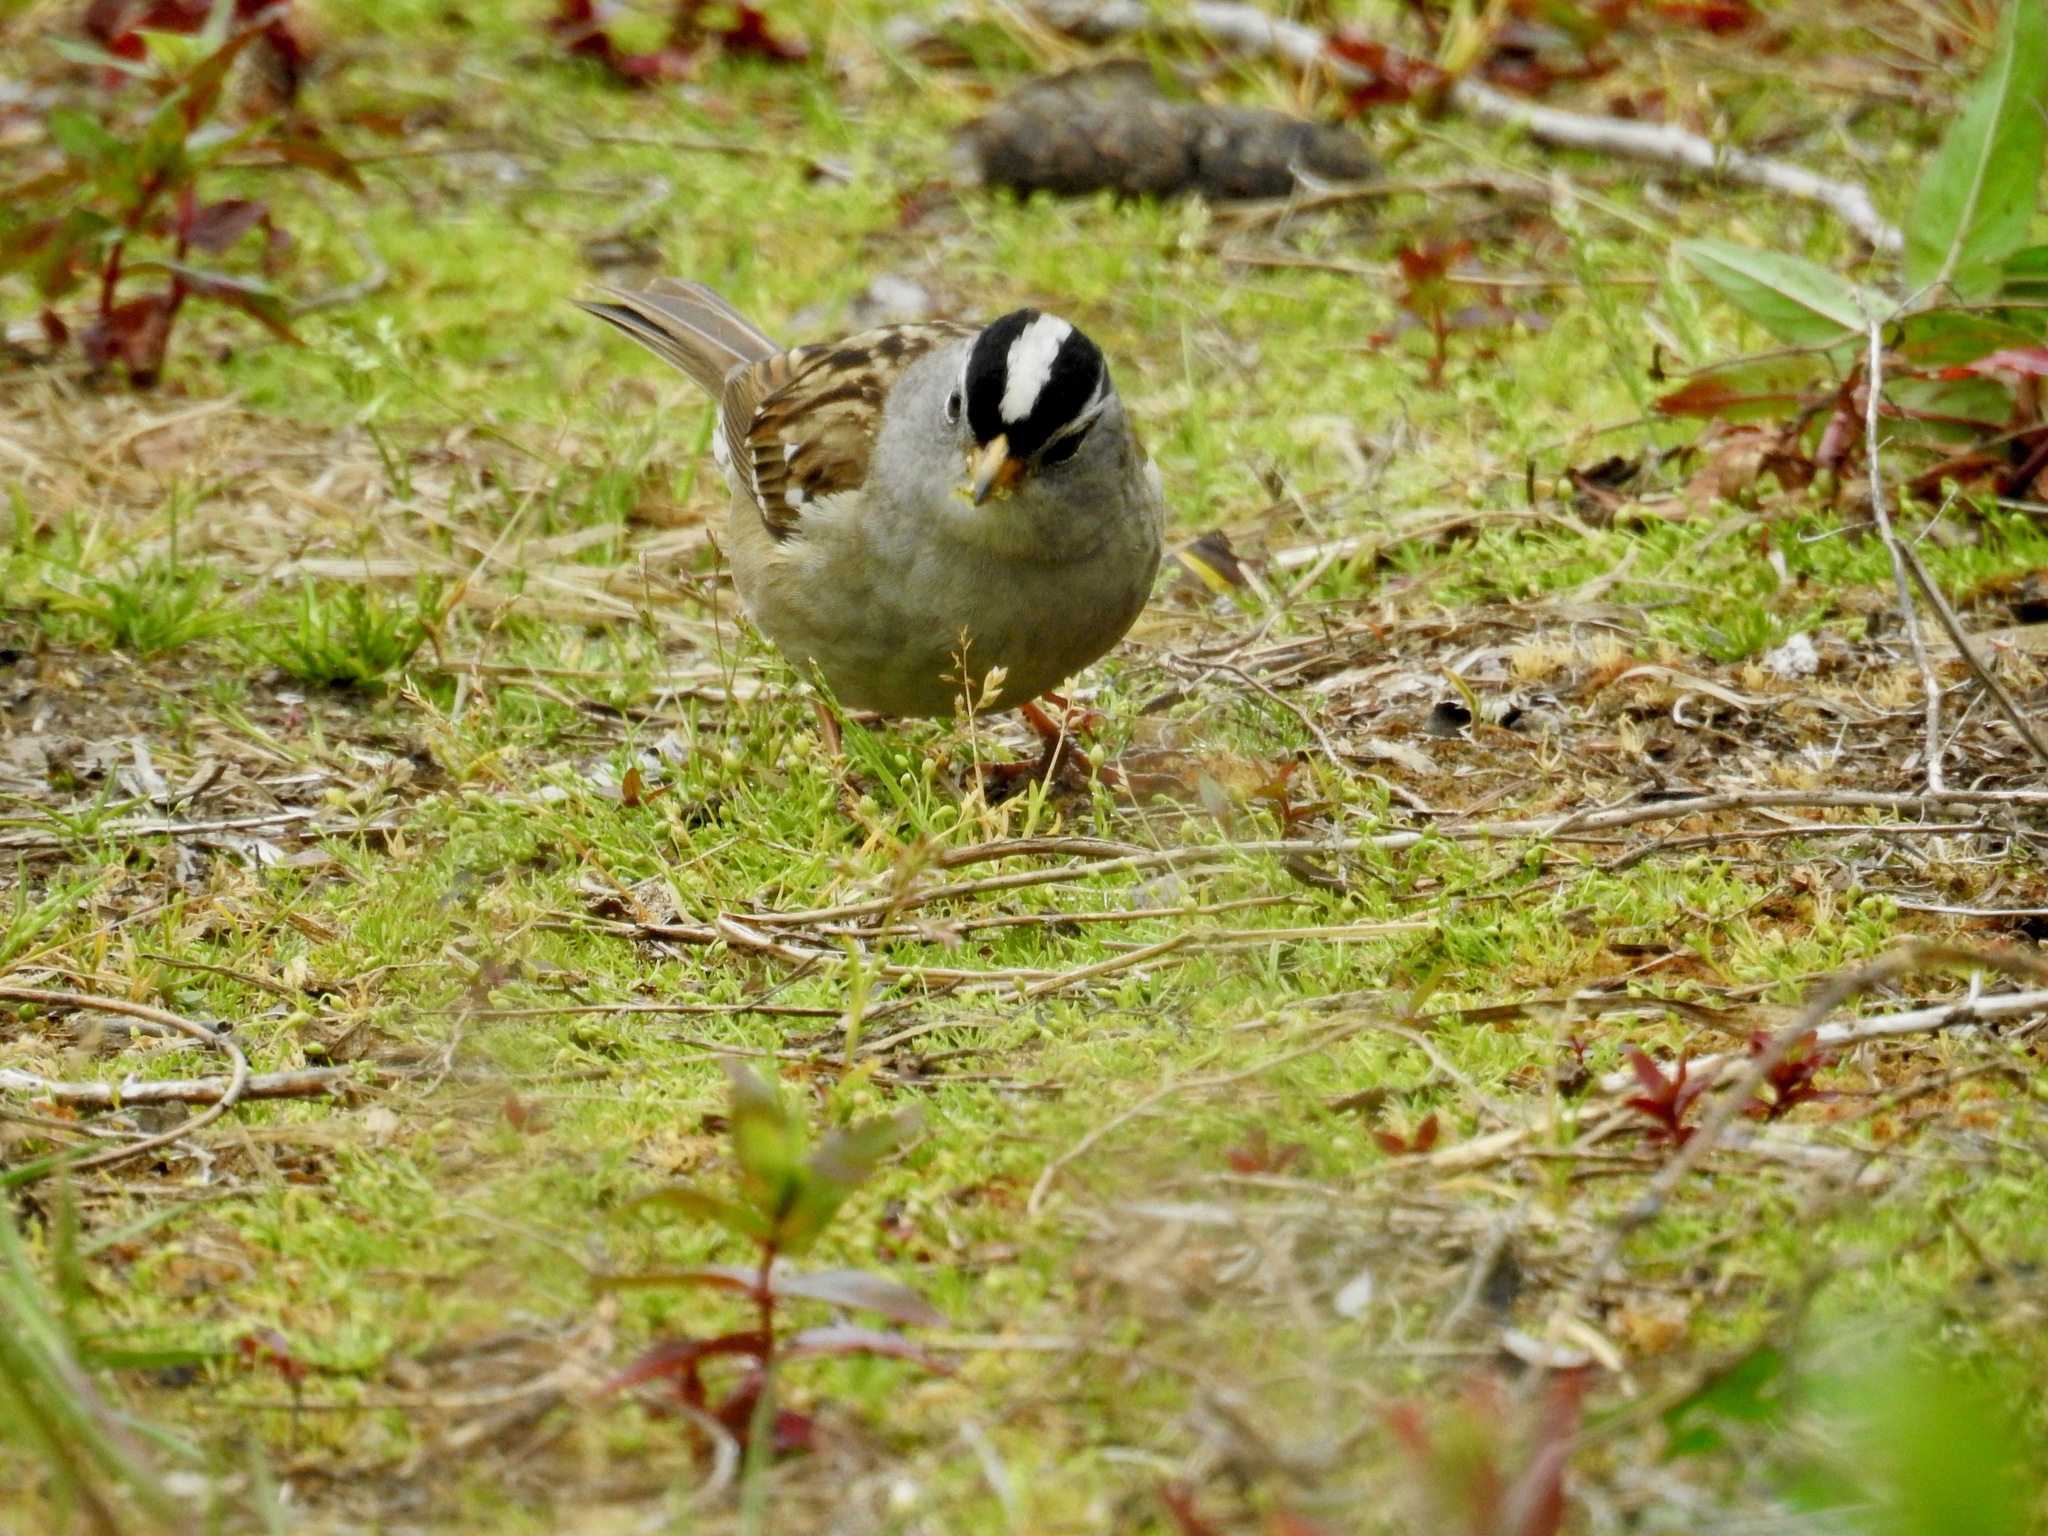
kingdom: Animalia
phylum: Chordata
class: Aves
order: Passeriformes
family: Passerellidae
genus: Zonotrichia
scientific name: Zonotrichia leucophrys
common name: White-crowned sparrow
